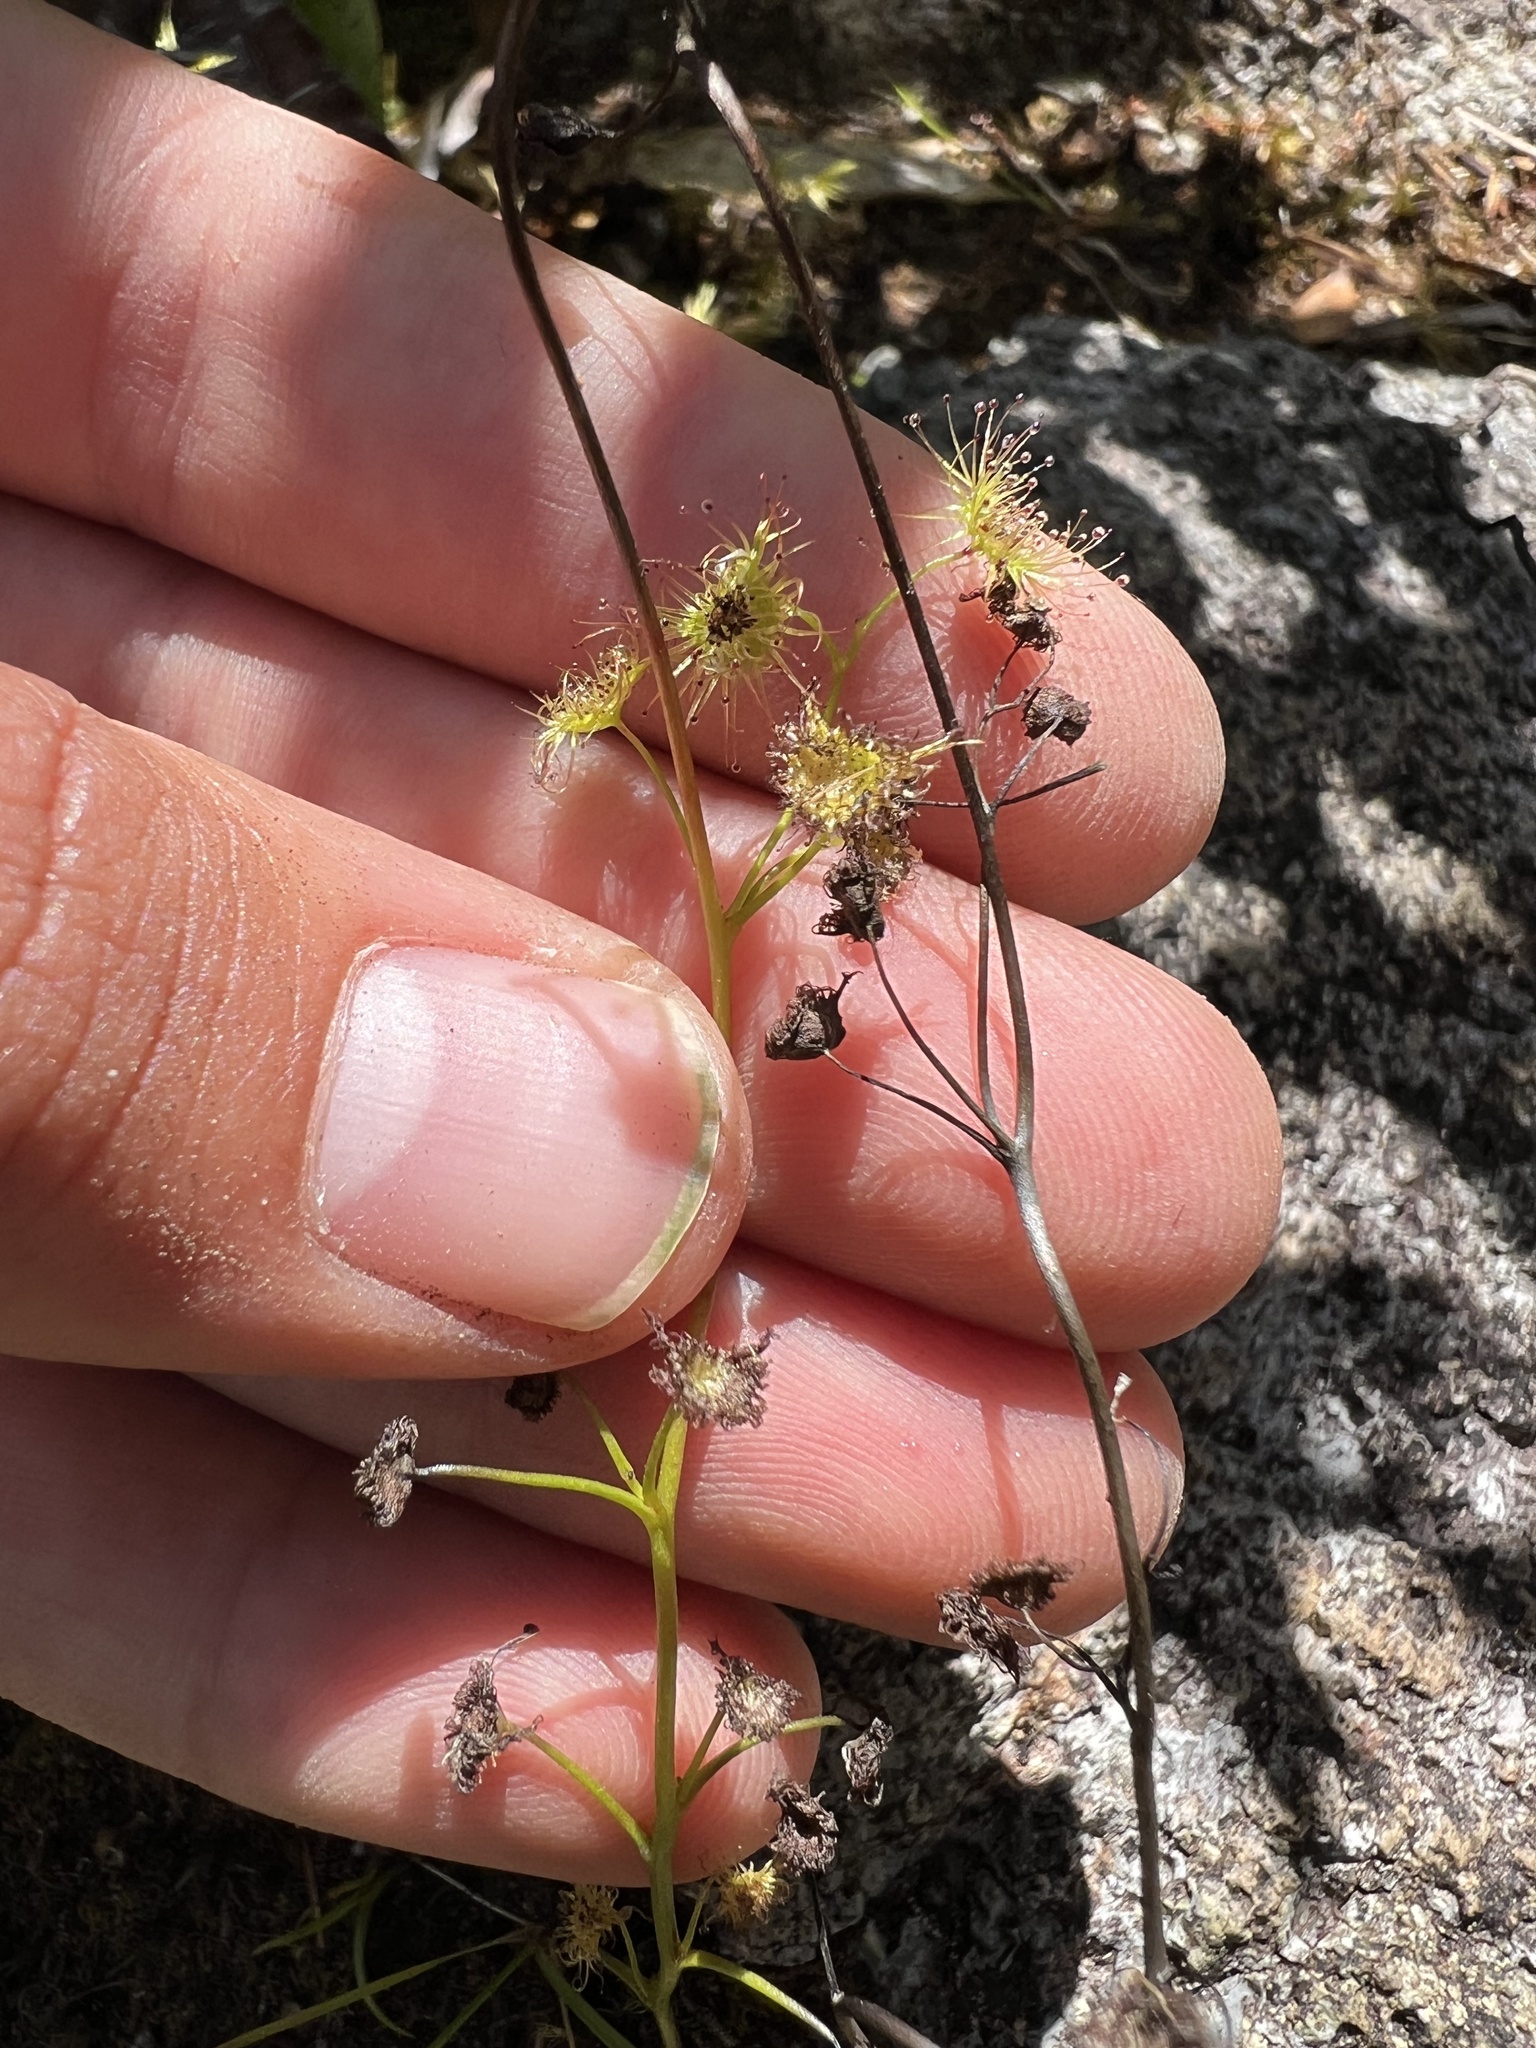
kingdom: Plantae
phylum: Tracheophyta
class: Magnoliopsida
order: Caryophyllales
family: Droseraceae
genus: Drosera
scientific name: Drosera peltata
